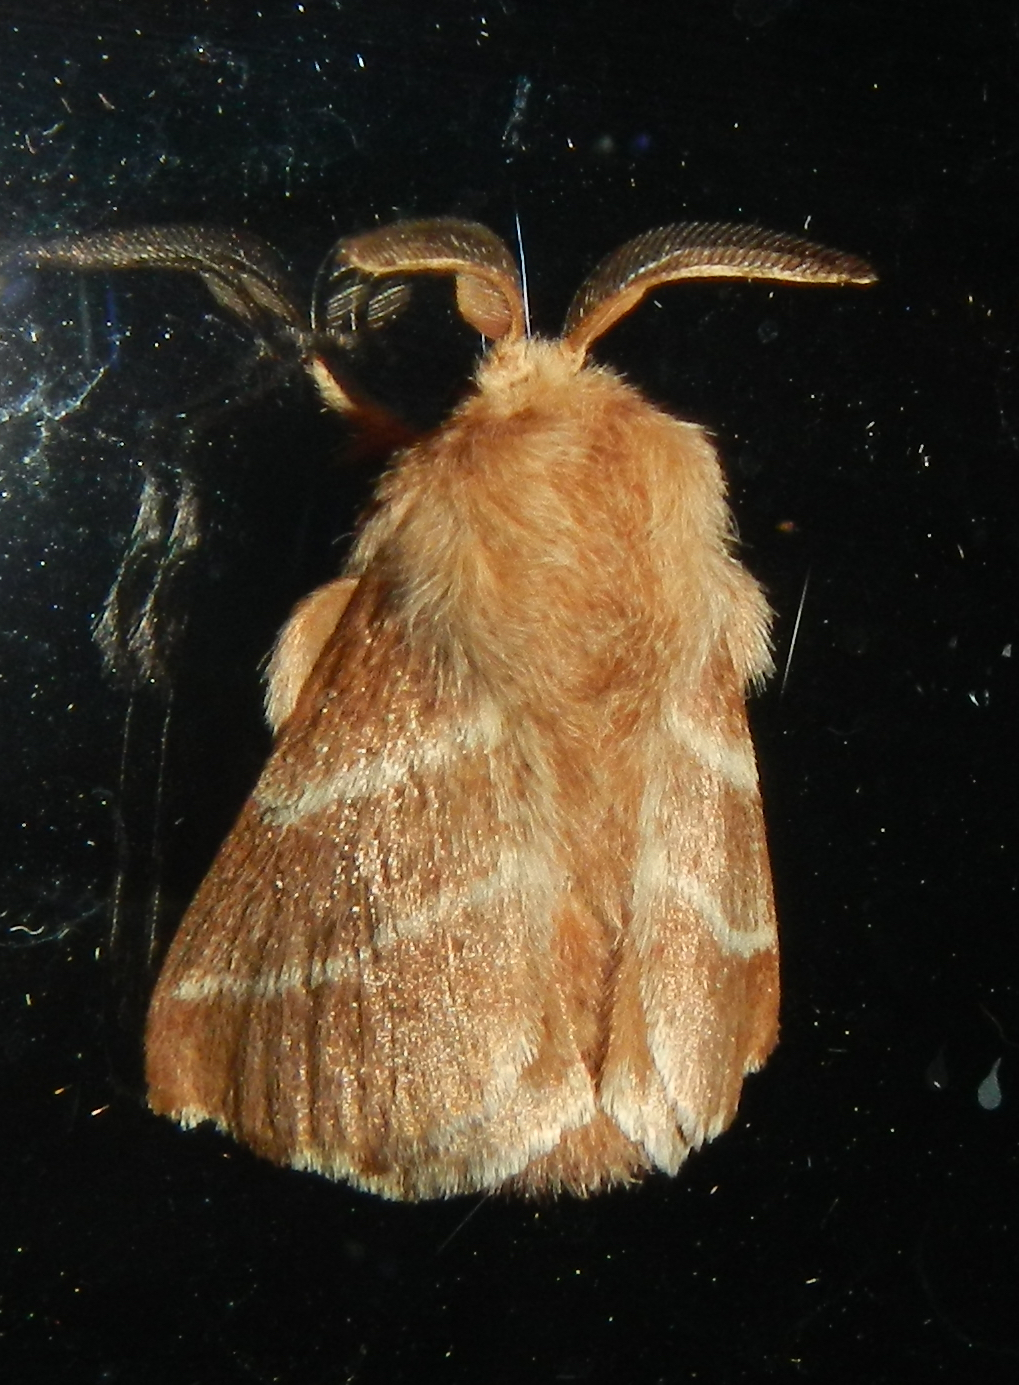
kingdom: Animalia
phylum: Arthropoda
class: Insecta
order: Lepidoptera
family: Lasiocampidae
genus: Malacosoma
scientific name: Malacosoma americana
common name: Eastern tent caterpillar moth
